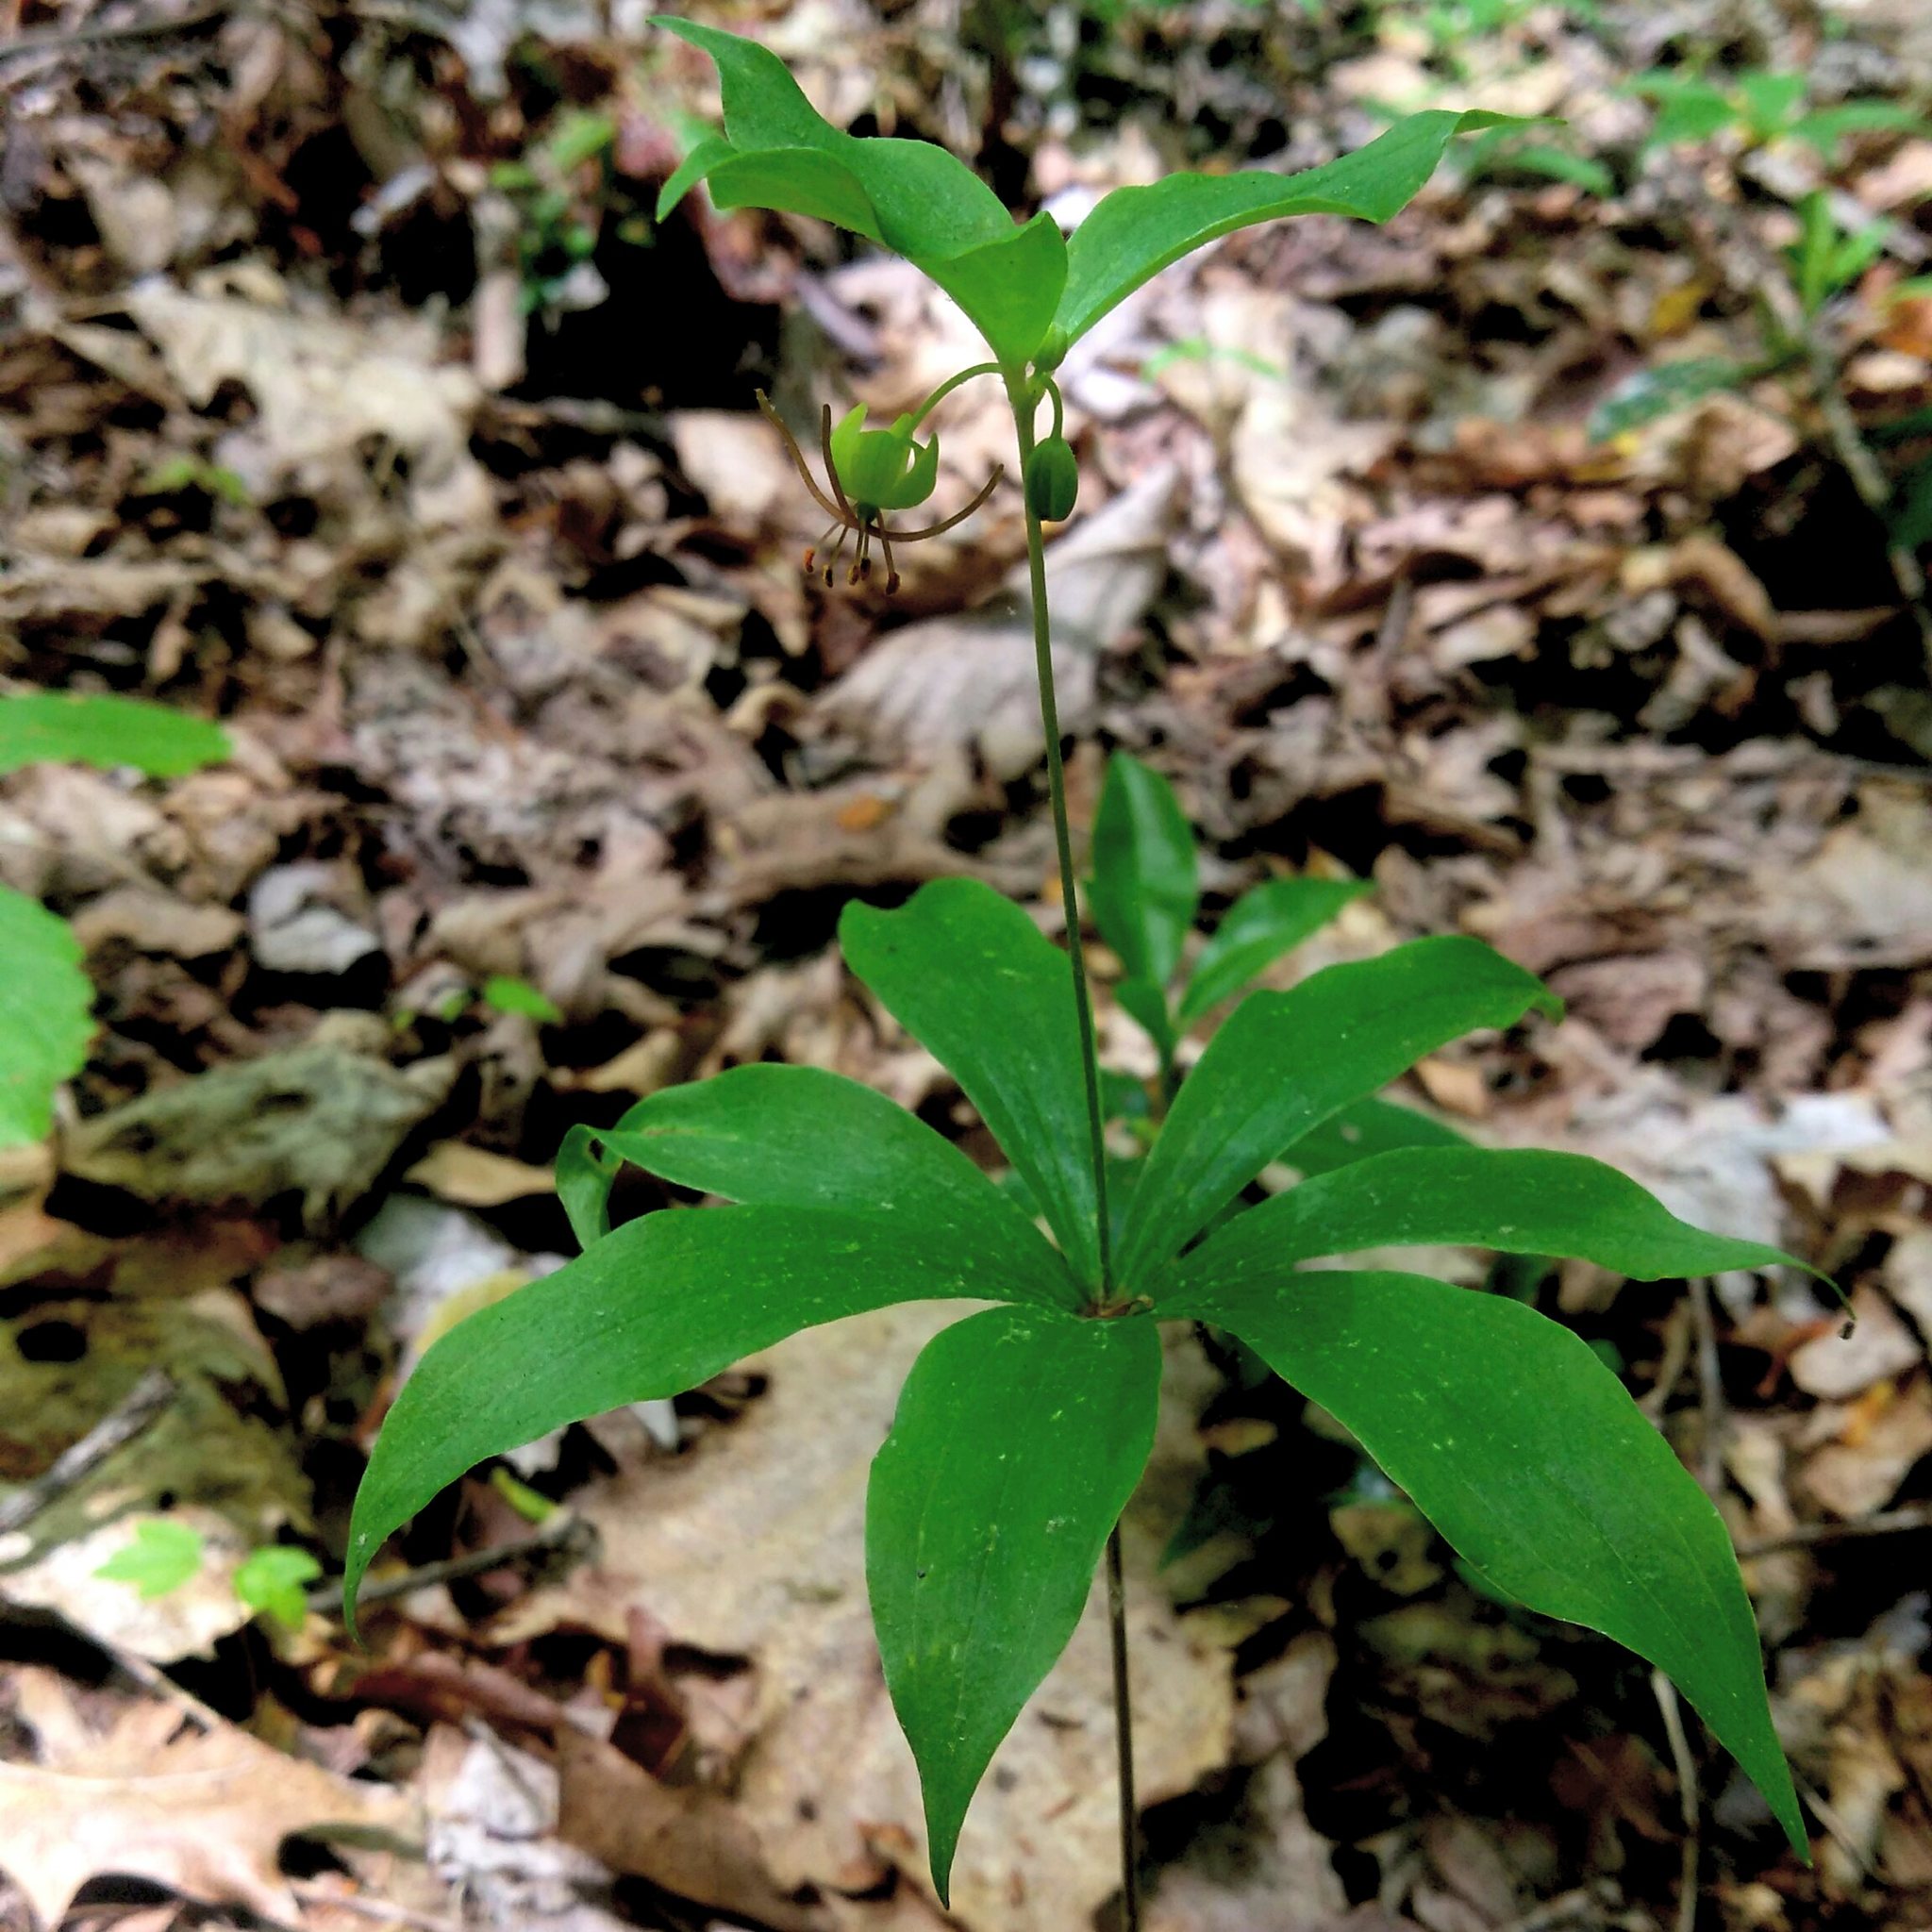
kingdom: Plantae
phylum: Tracheophyta
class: Liliopsida
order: Liliales
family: Liliaceae
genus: Medeola
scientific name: Medeola virginiana
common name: Indian cucumber-root
